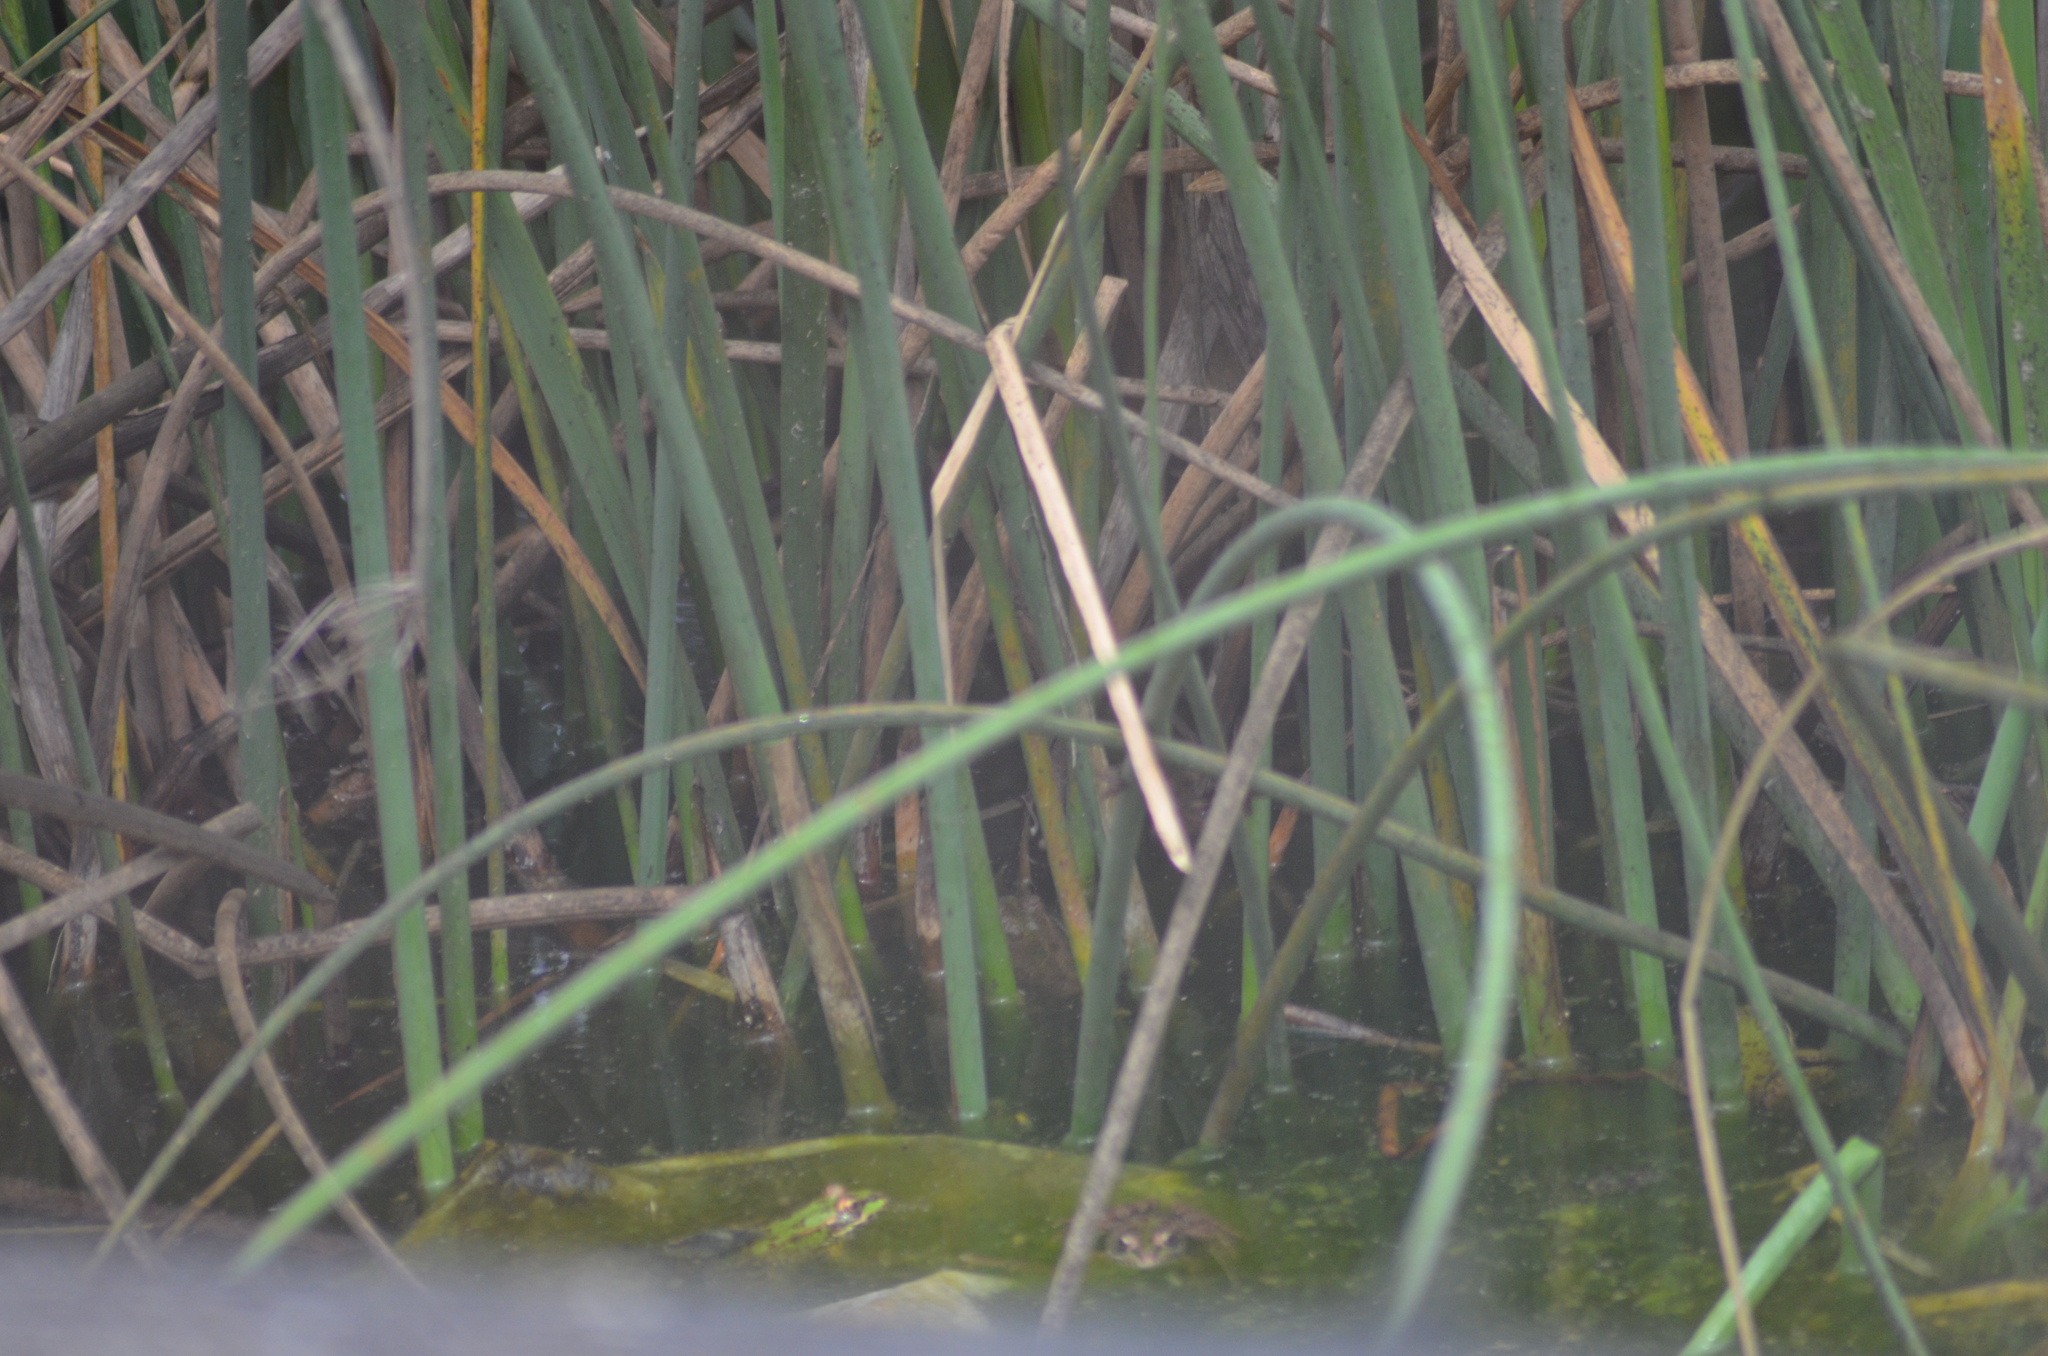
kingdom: Animalia
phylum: Chordata
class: Amphibia
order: Anura
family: Ranidae
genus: Pelophylax
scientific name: Pelophylax
